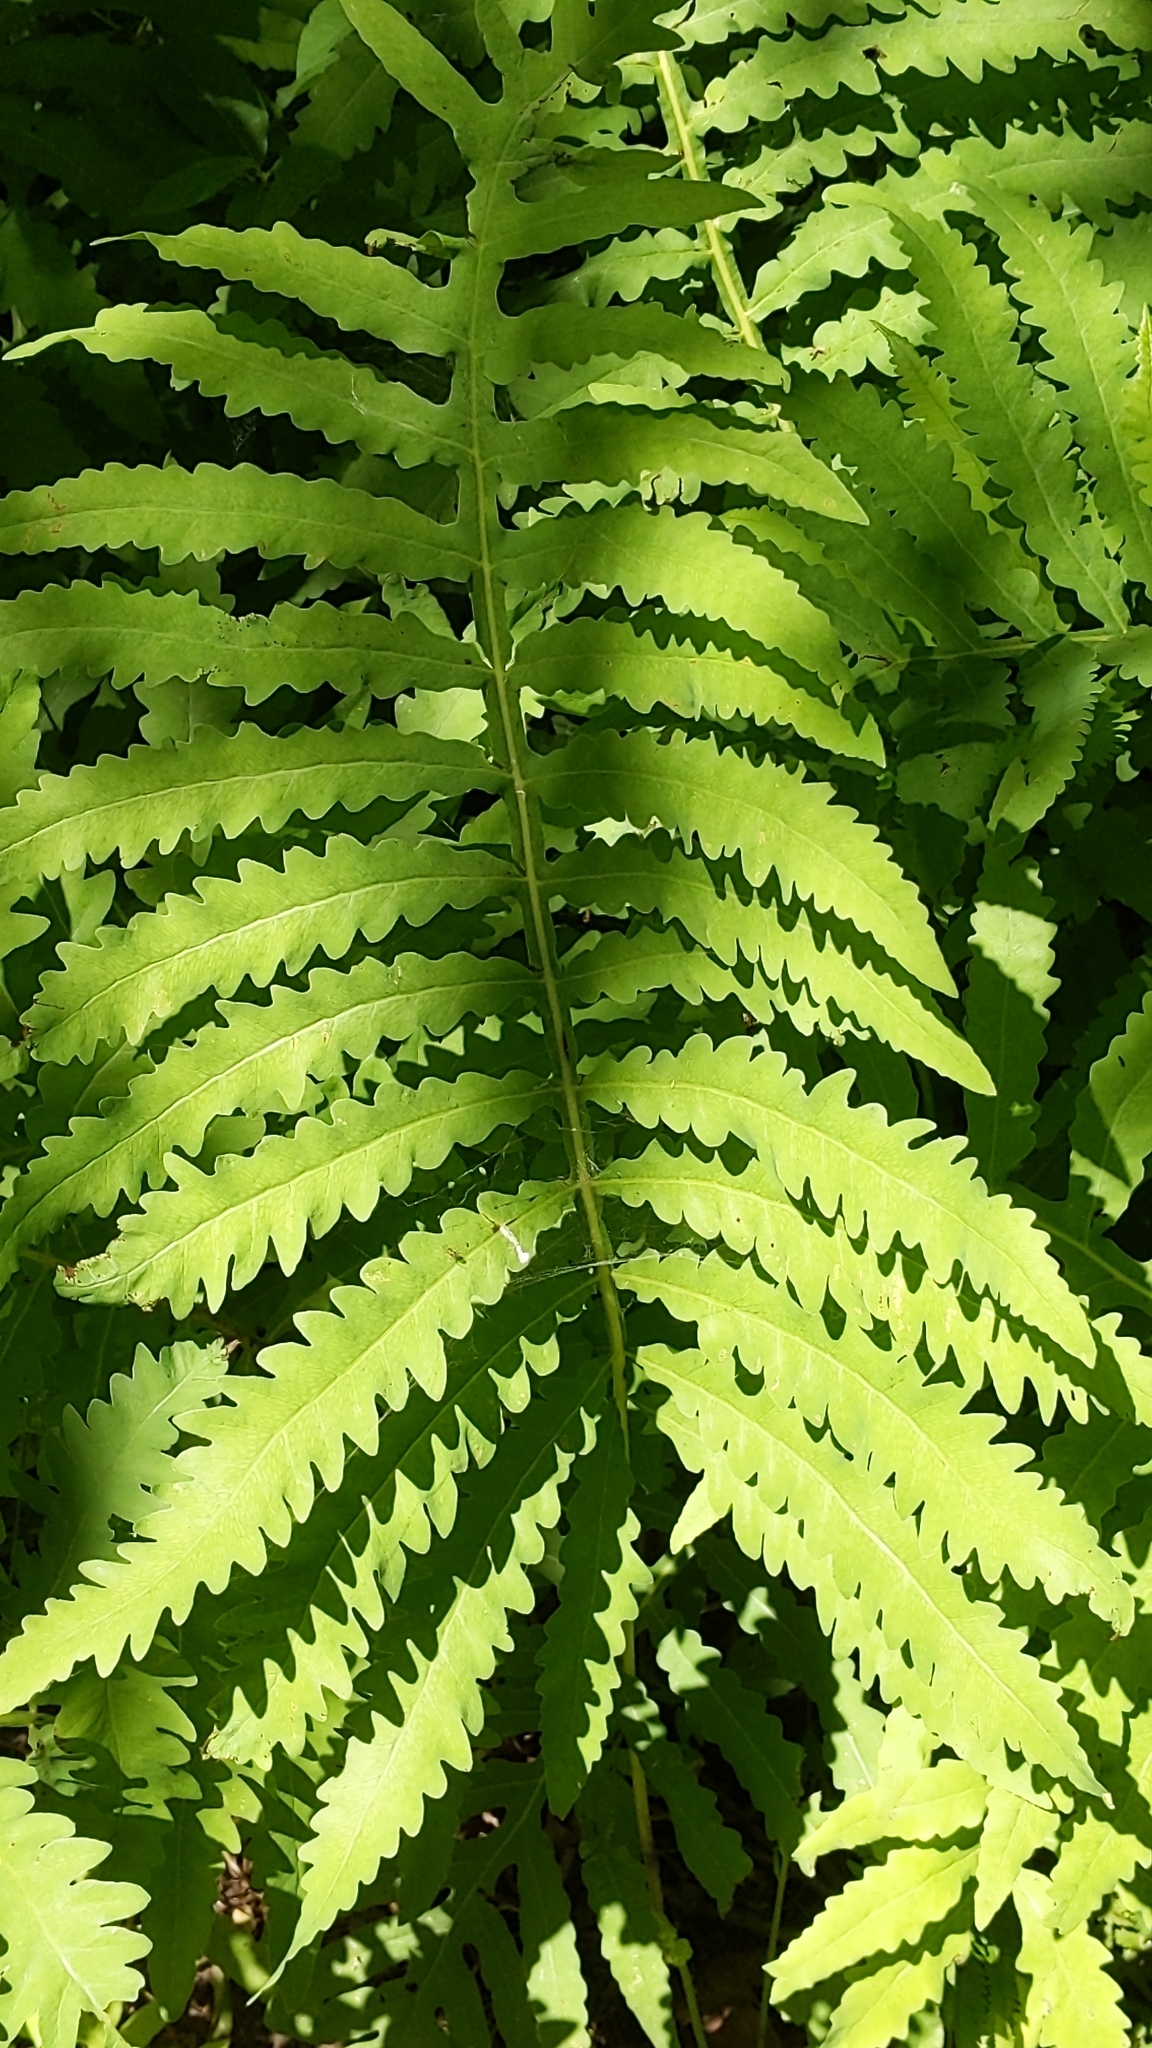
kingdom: Plantae
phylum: Tracheophyta
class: Polypodiopsida
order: Polypodiales
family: Onocleaceae
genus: Onoclea
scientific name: Onoclea sensibilis
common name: Sensitive fern
